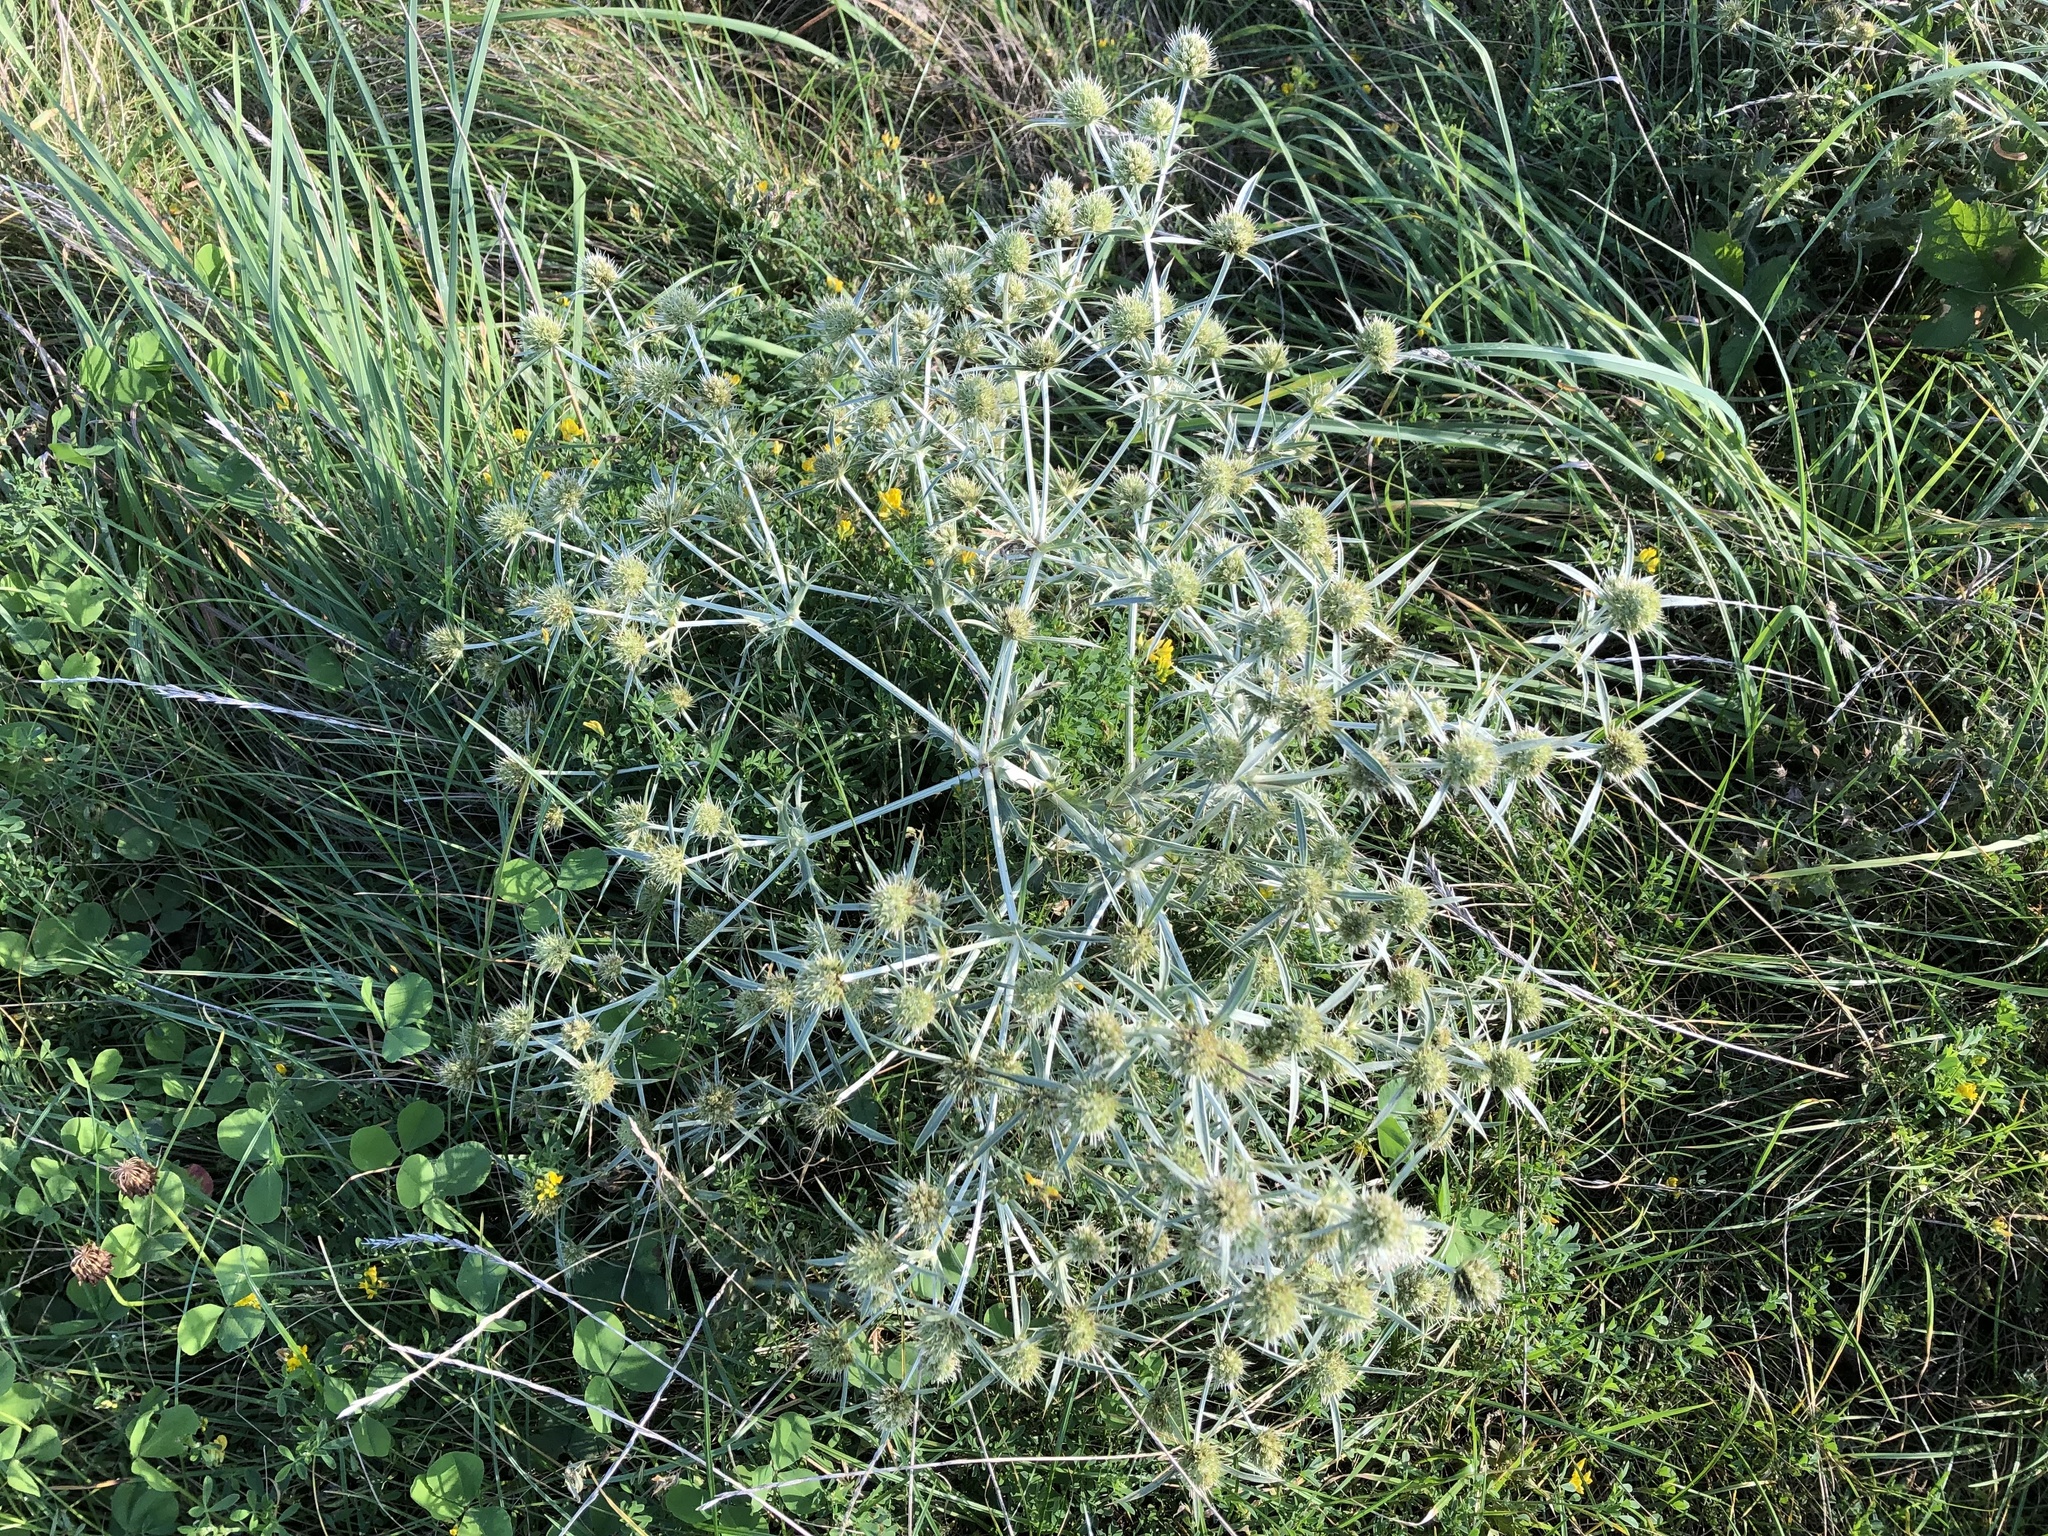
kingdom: Plantae
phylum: Tracheophyta
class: Magnoliopsida
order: Apiales
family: Apiaceae
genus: Eryngium
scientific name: Eryngium campestre
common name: Field eryngo
